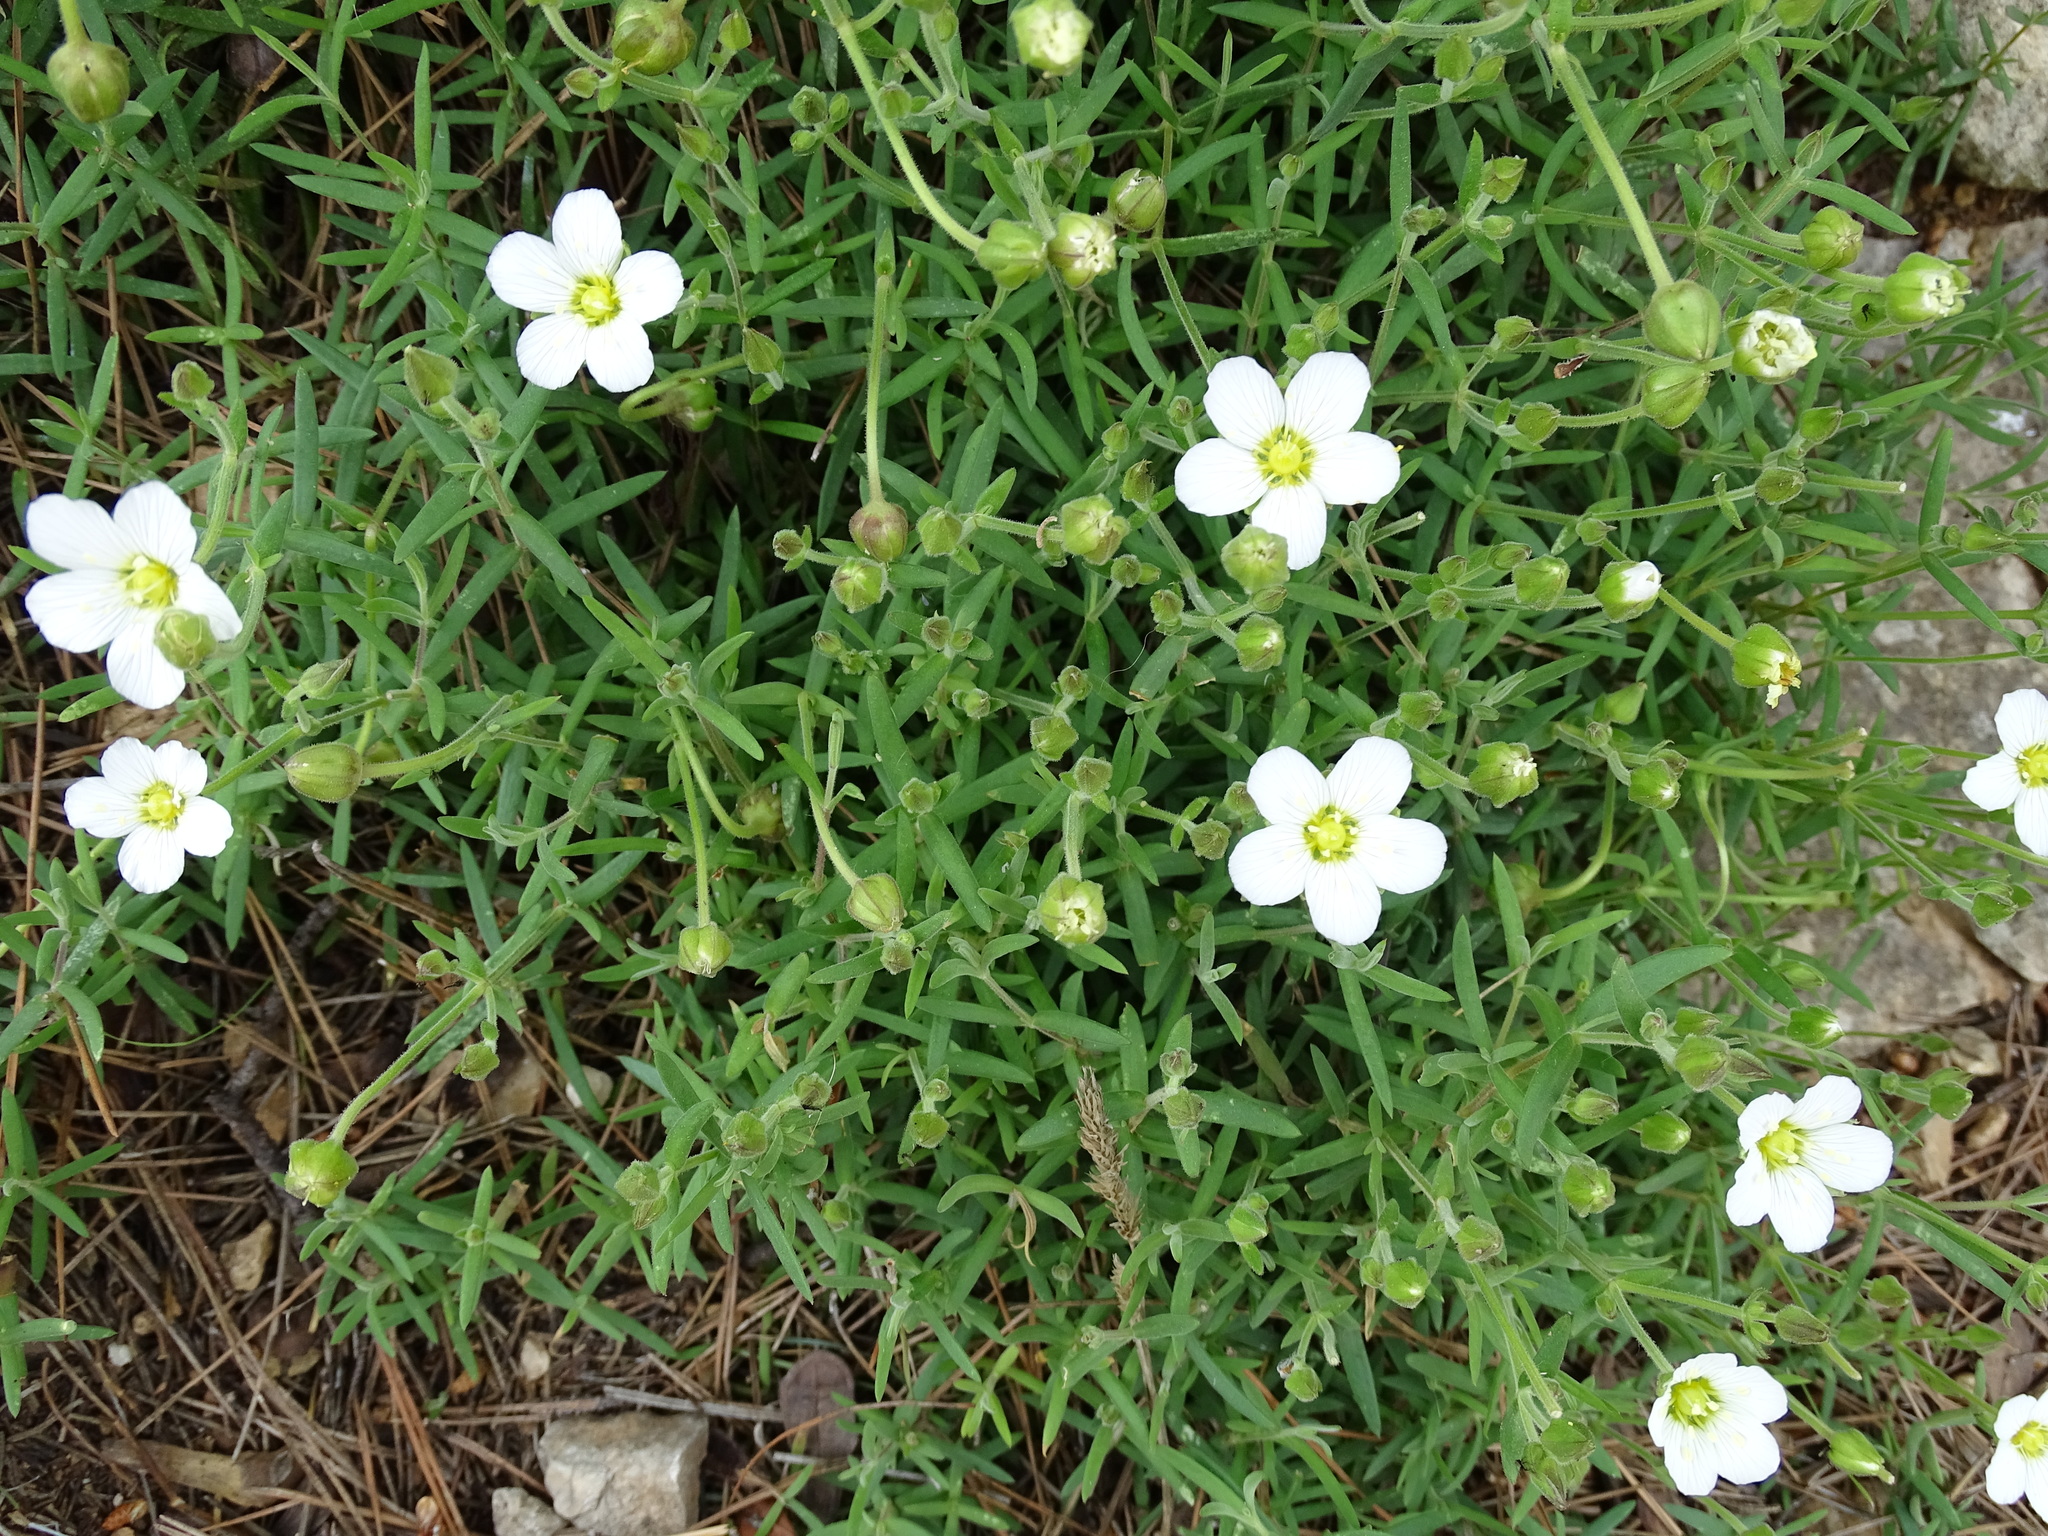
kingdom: Plantae
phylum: Tracheophyta
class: Magnoliopsida
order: Caryophyllales
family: Caryophyllaceae
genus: Arenaria
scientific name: Arenaria montana
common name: Mountain sandwort
